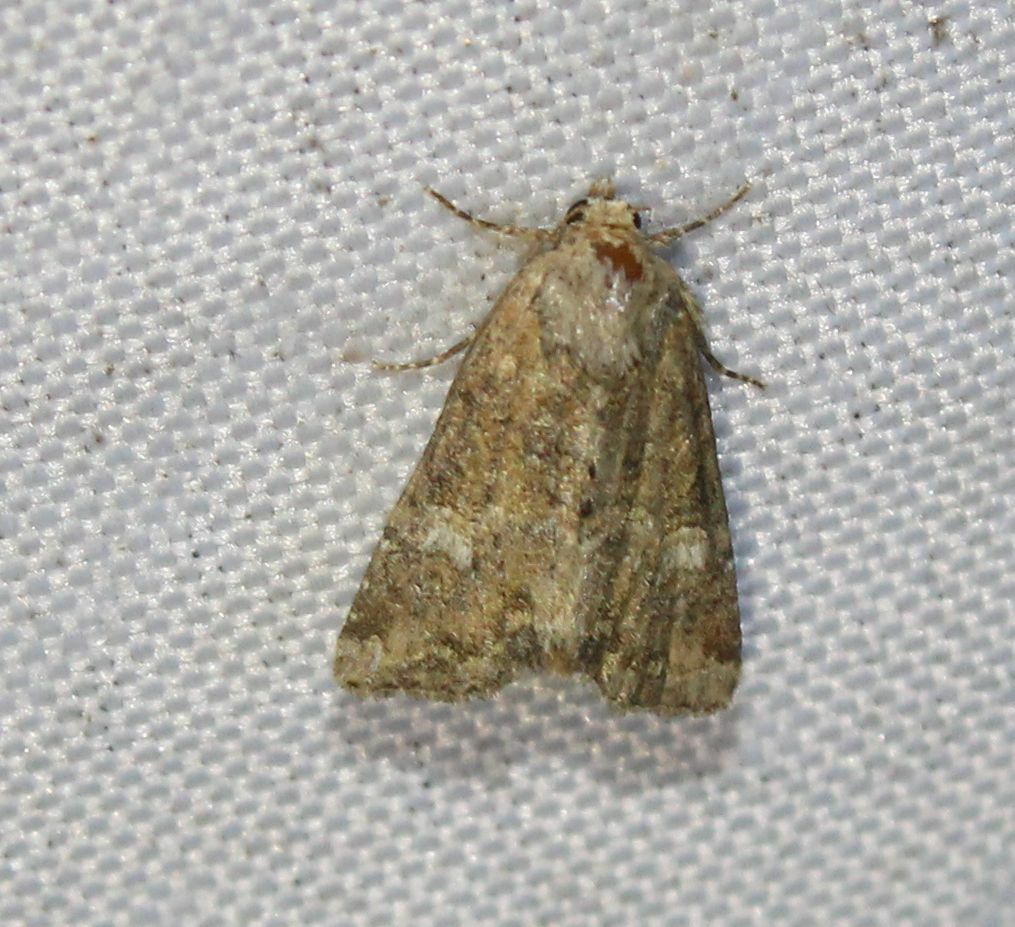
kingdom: Animalia
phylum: Arthropoda
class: Insecta
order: Lepidoptera
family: Noctuidae
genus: Mesoligia
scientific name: Mesoligia furuncula
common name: Cloaked minor
